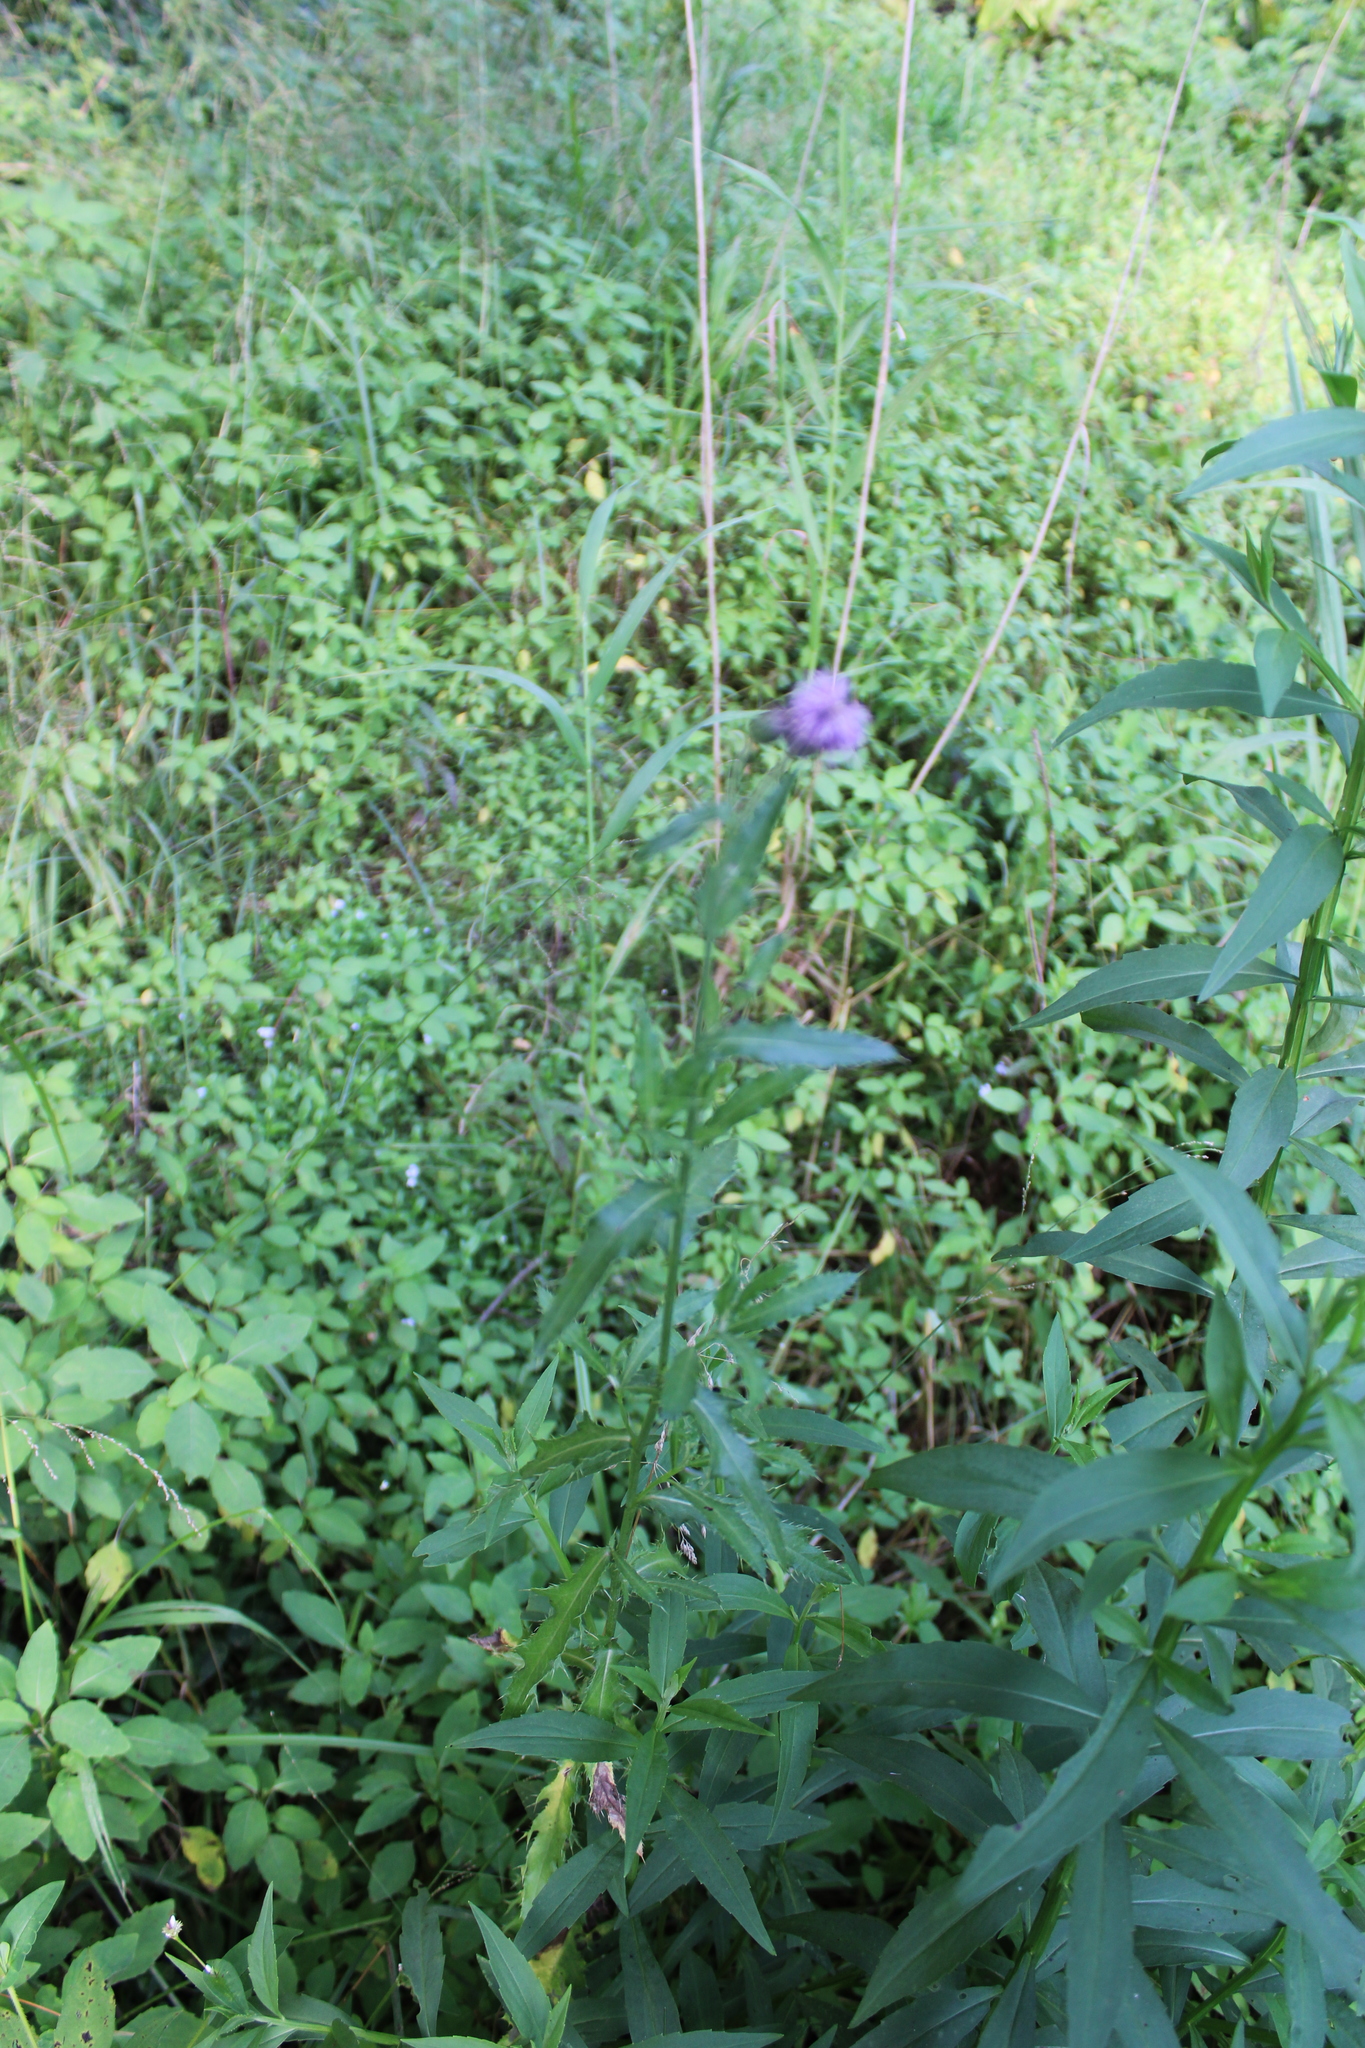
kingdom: Plantae
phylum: Tracheophyta
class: Magnoliopsida
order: Asterales
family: Asteraceae
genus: Cirsium
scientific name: Cirsium arvense
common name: Creeping thistle
